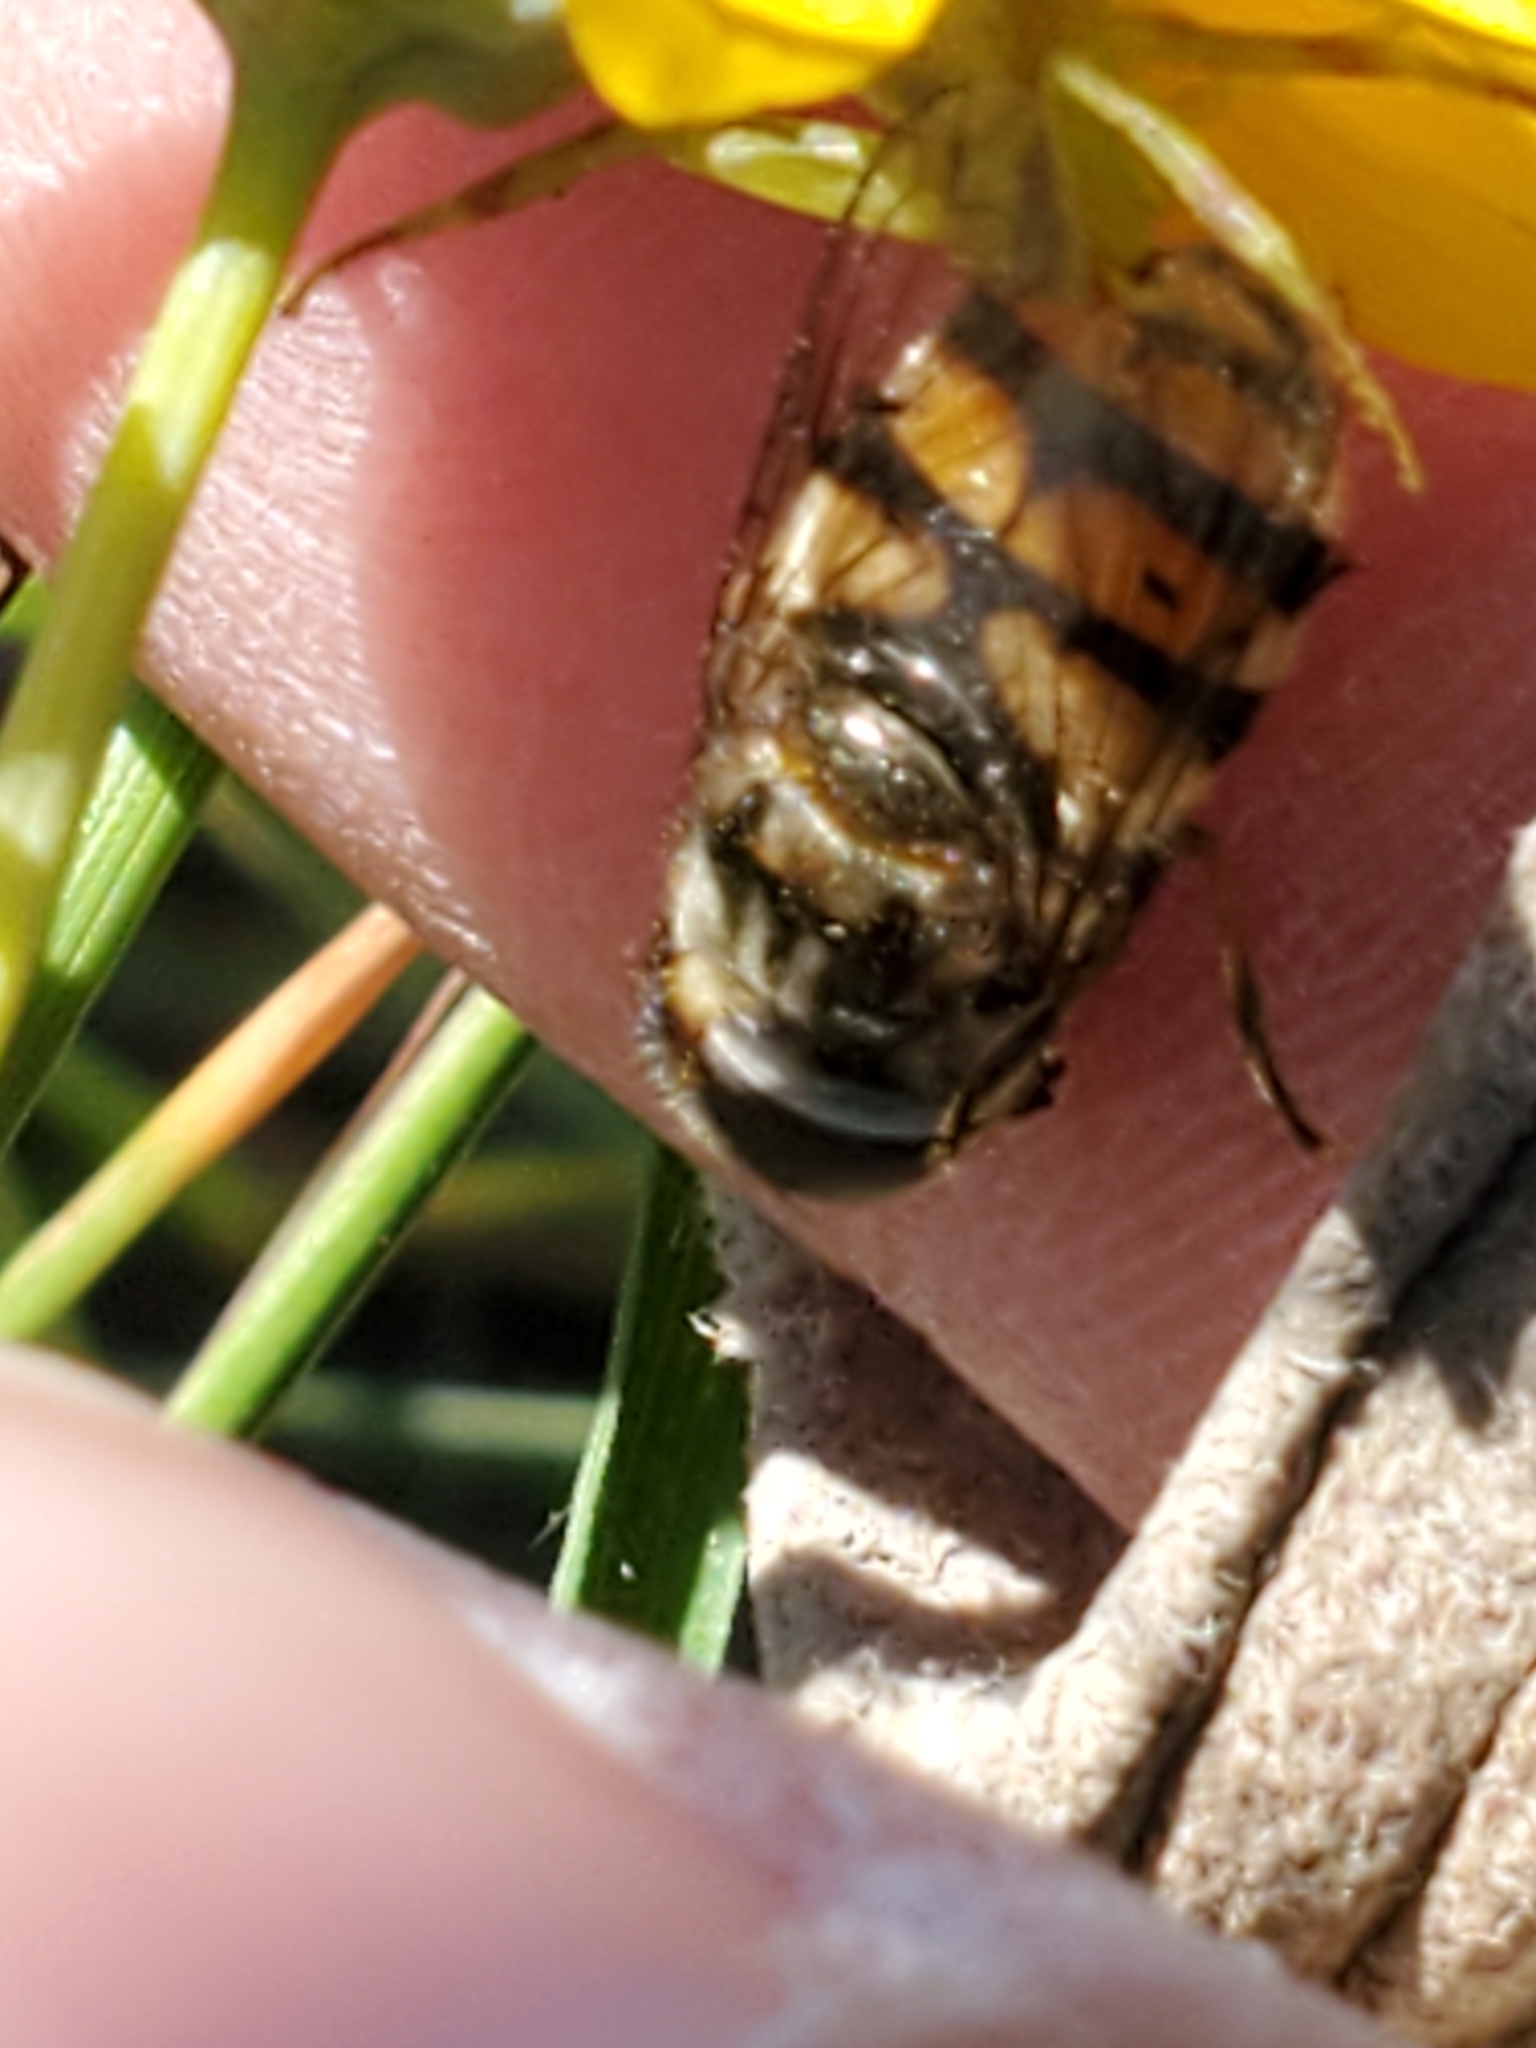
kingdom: Animalia
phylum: Arthropoda
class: Insecta
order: Diptera
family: Syrphidae
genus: Copestylum
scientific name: Copestylum avidum
